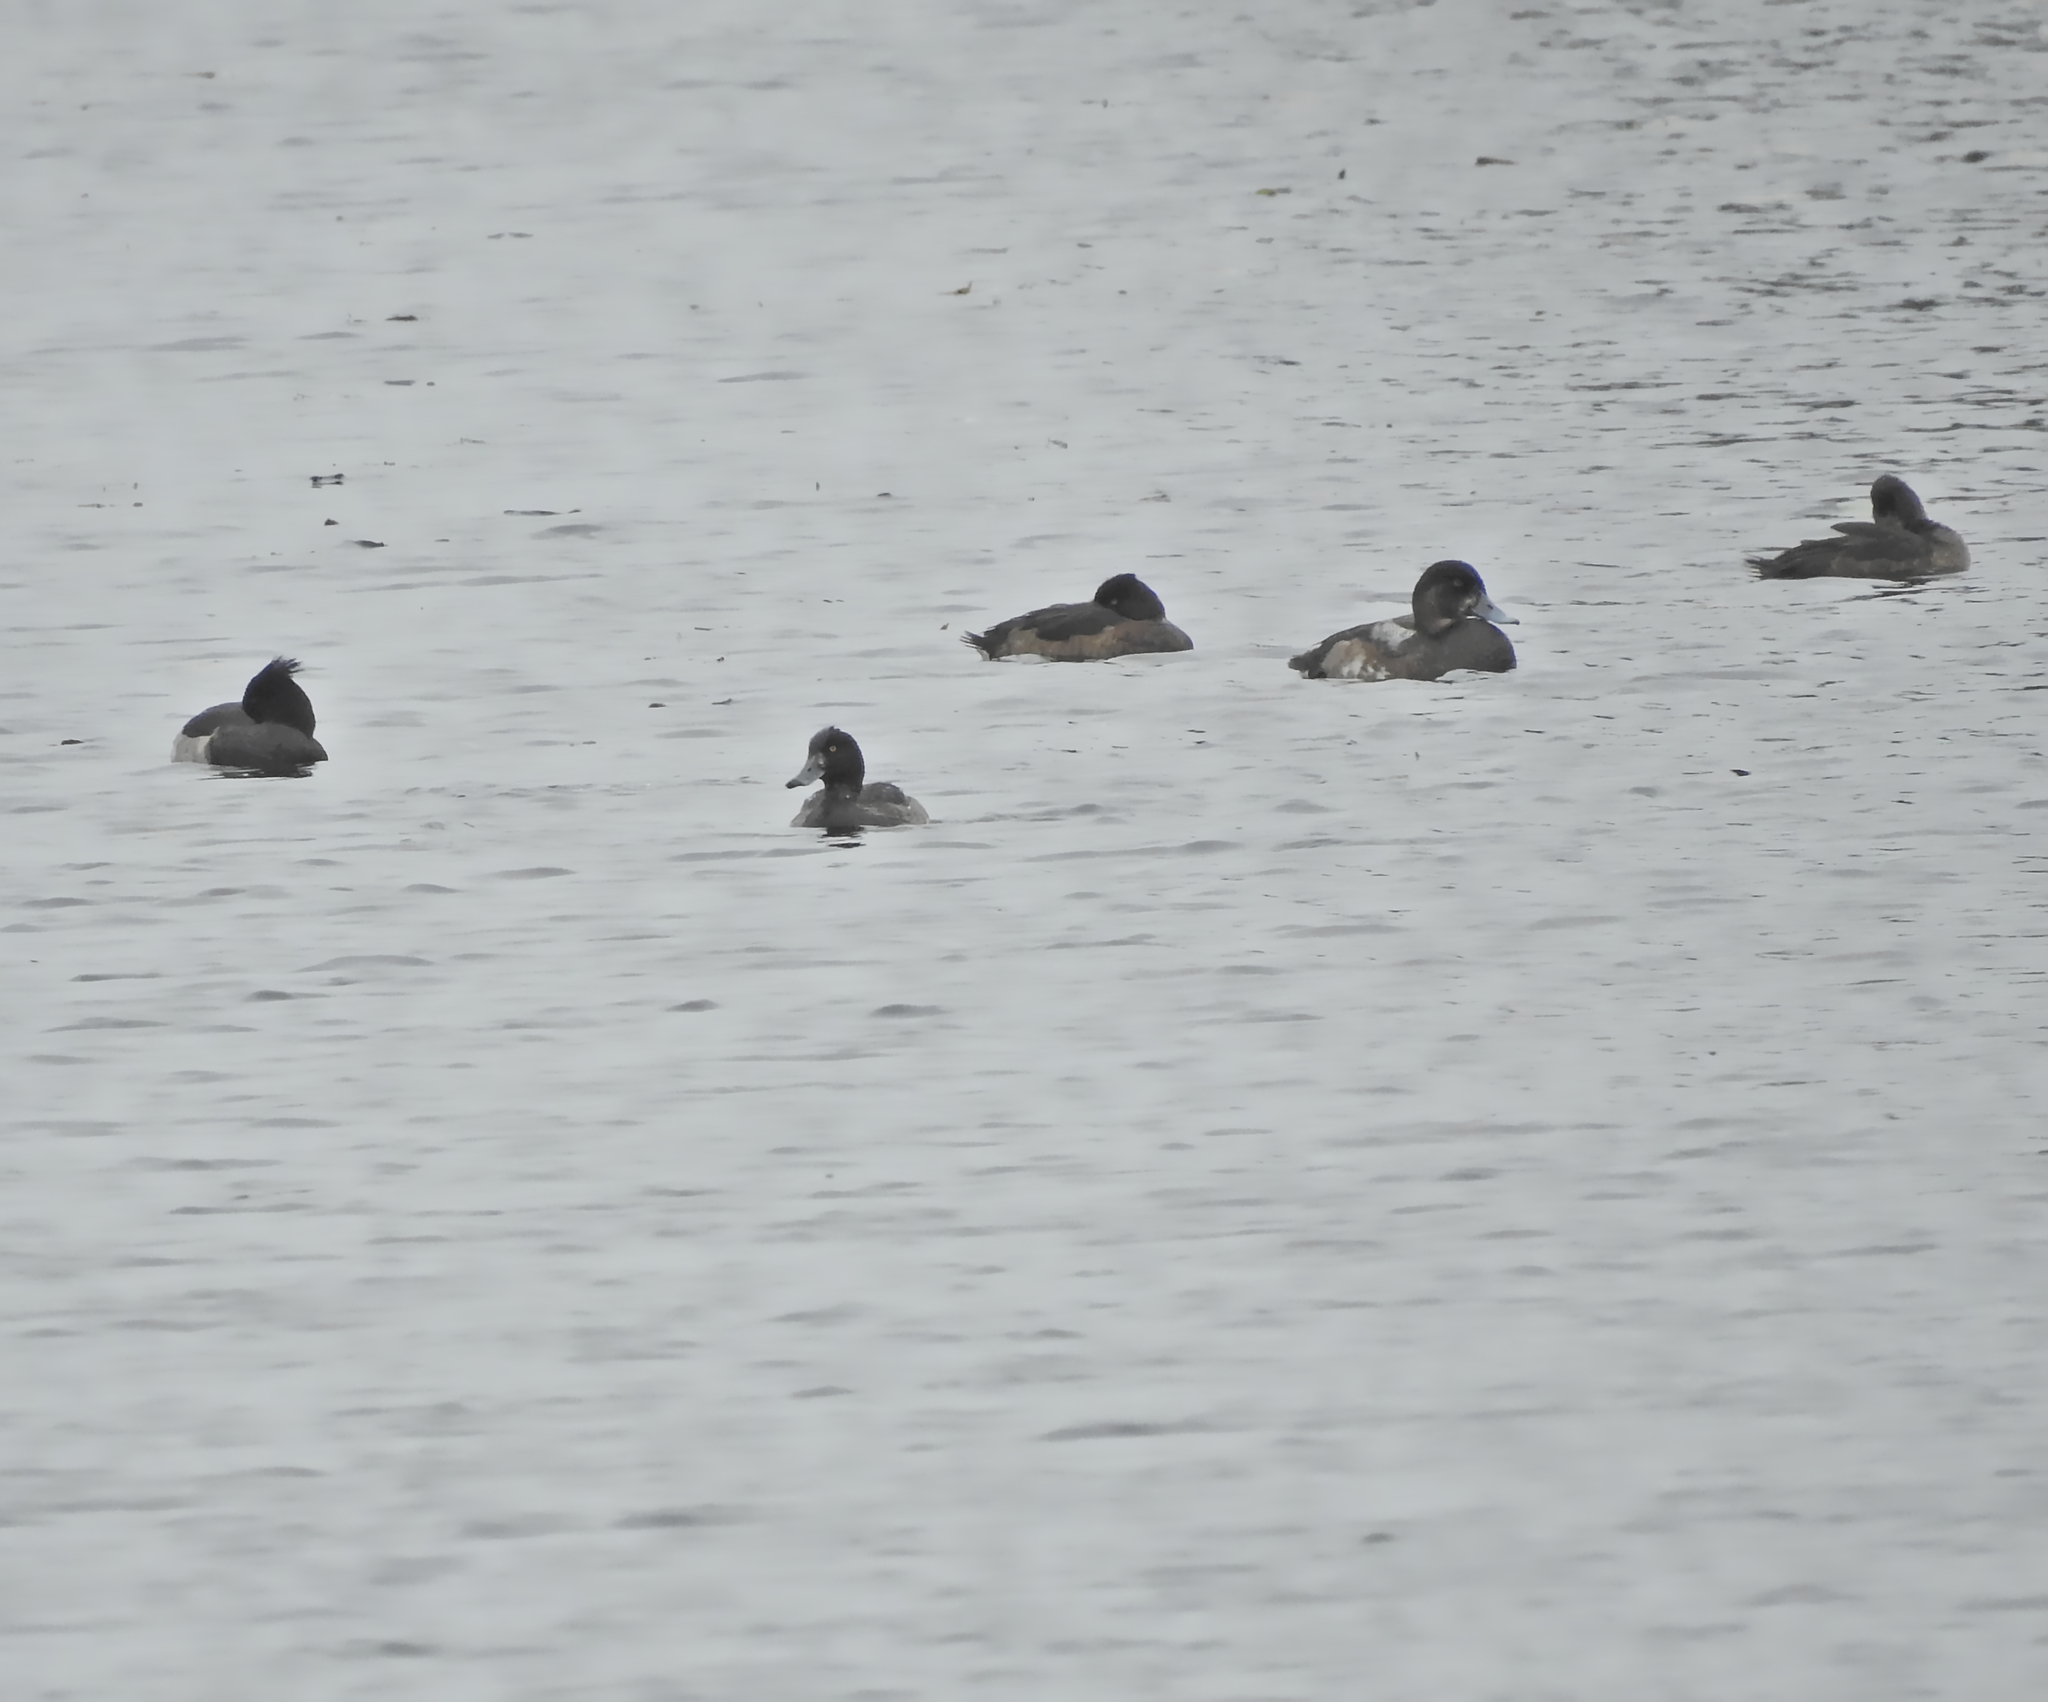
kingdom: Animalia
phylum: Chordata
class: Aves
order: Anseriformes
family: Anatidae
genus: Aythya
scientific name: Aythya fuligula
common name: Tufted duck
